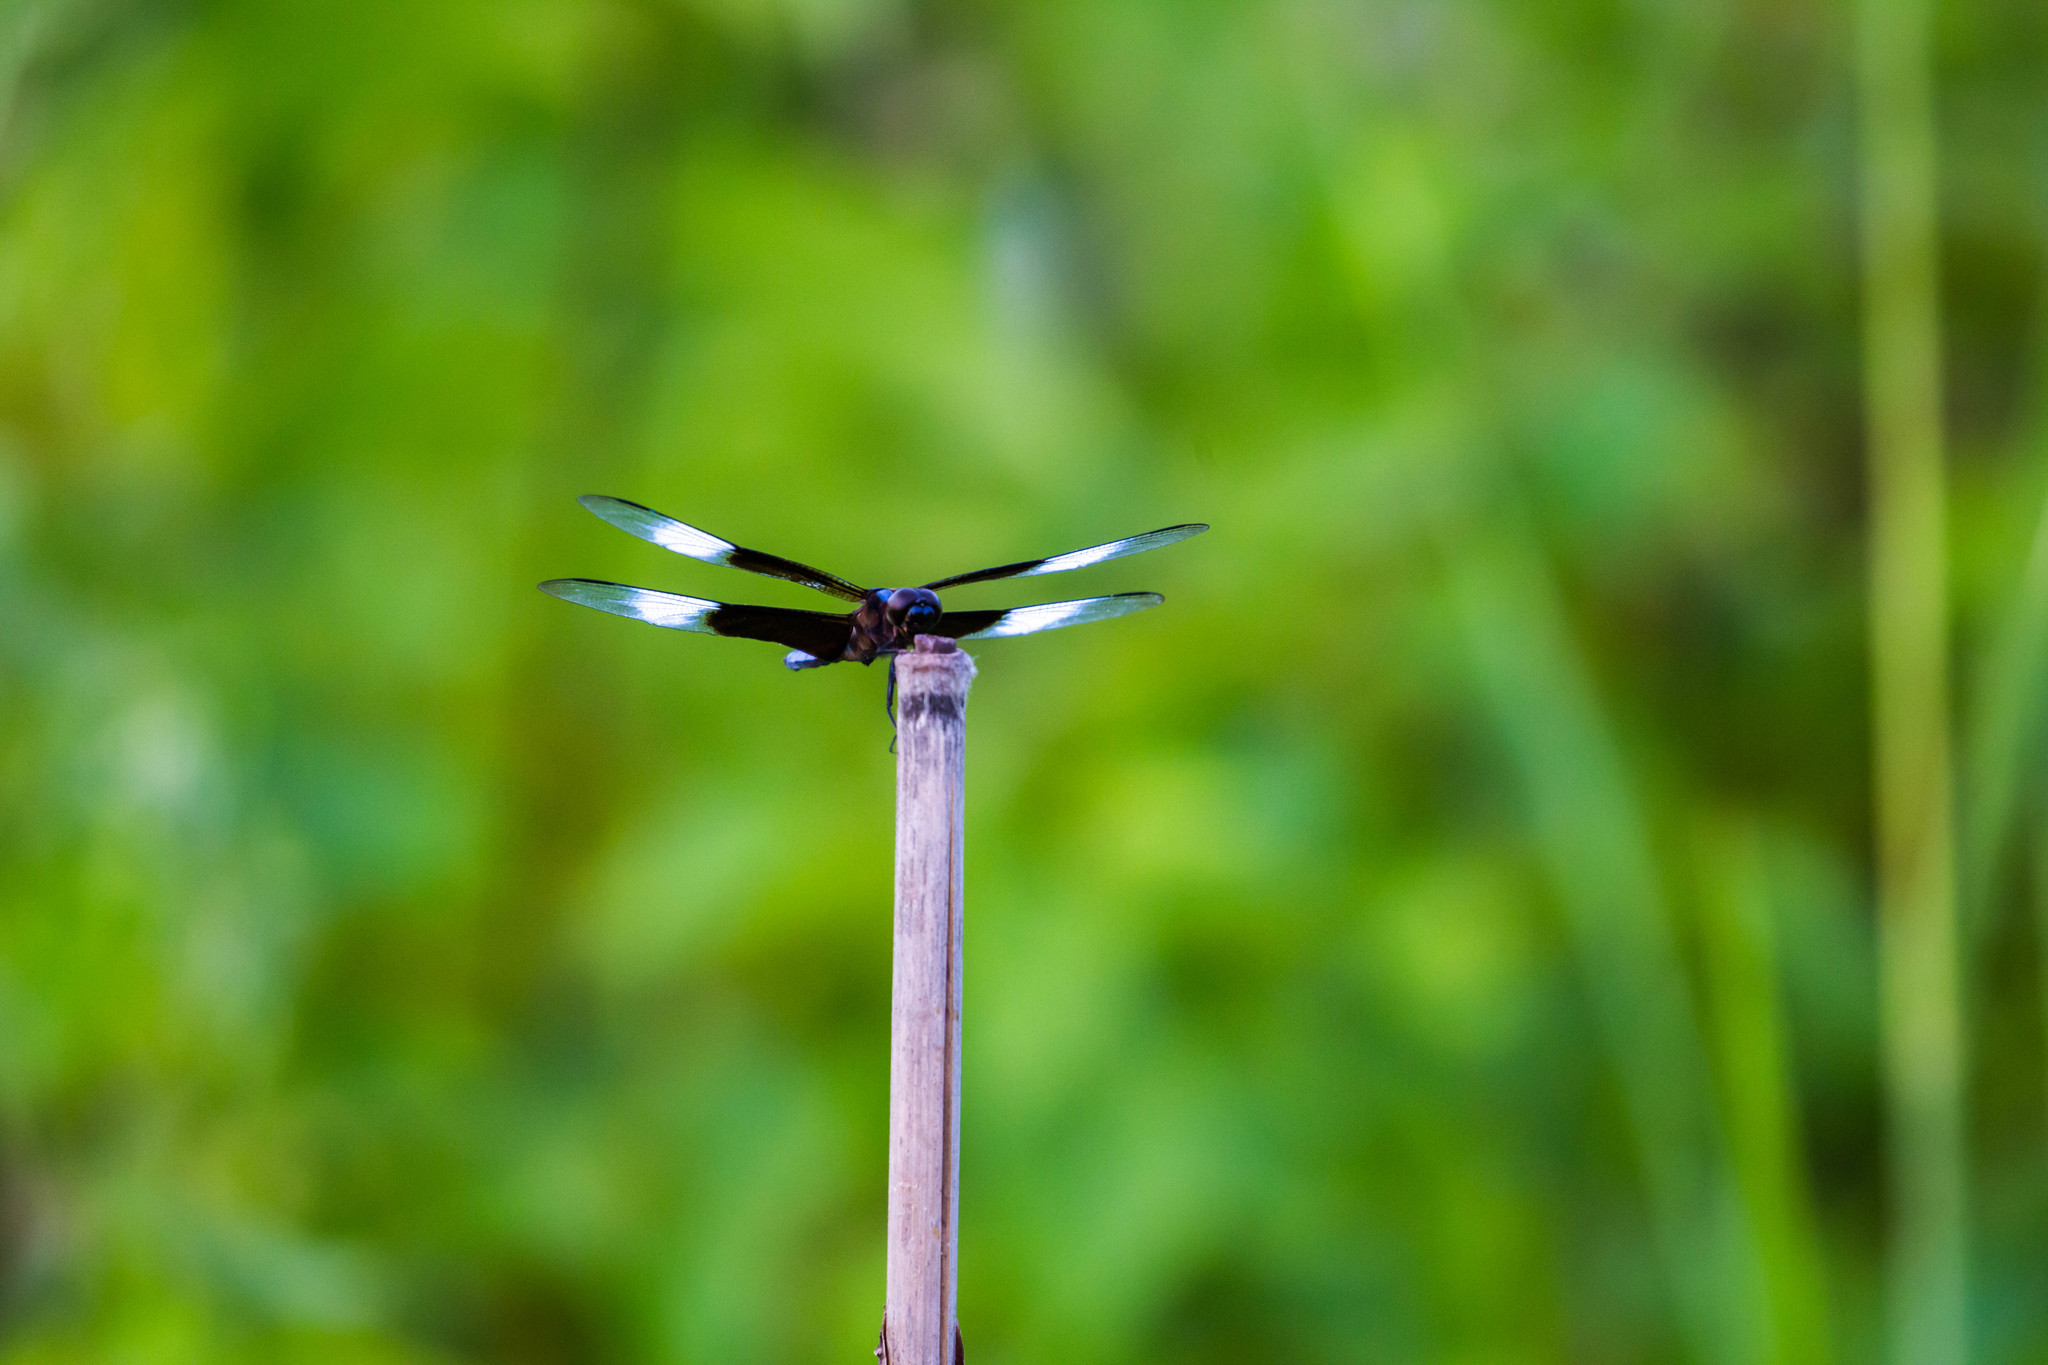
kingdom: Animalia
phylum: Arthropoda
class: Insecta
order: Odonata
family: Libellulidae
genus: Libellula
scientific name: Libellula luctuosa
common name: Widow skimmer
